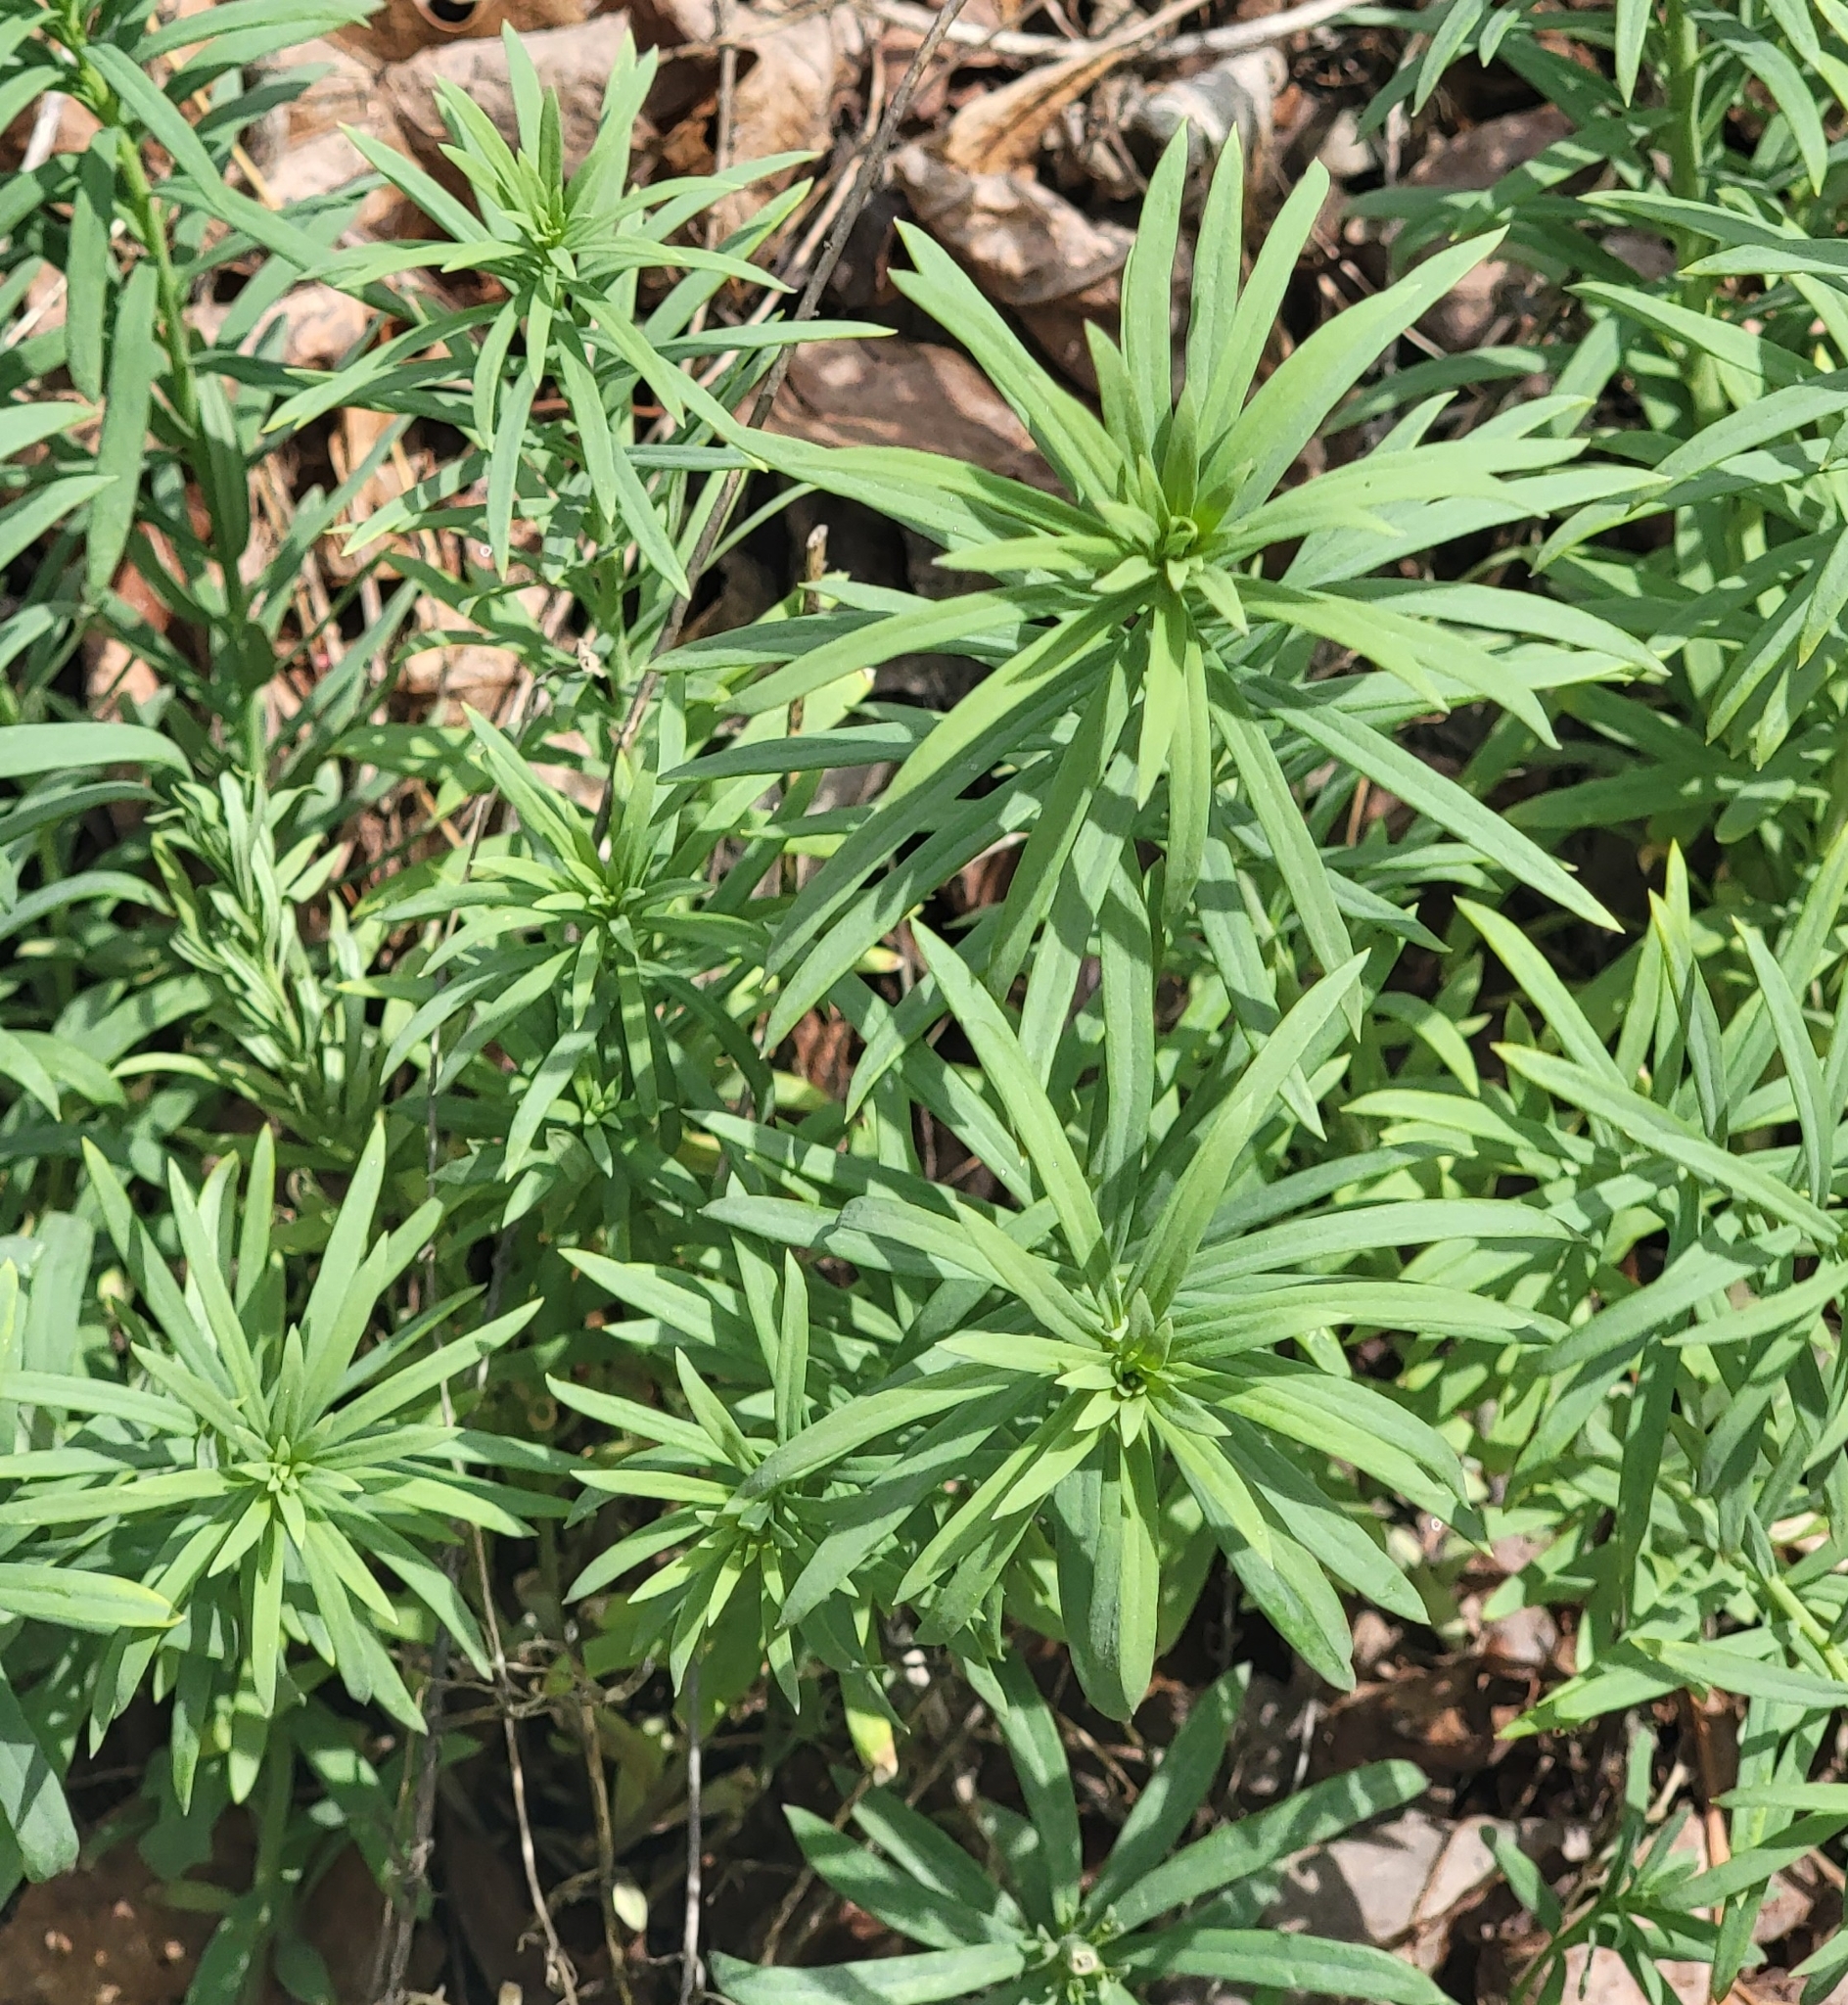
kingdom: Plantae
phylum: Tracheophyta
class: Magnoliopsida
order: Lamiales
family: Plantaginaceae
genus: Linaria
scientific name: Linaria vulgaris
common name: Butter and eggs
